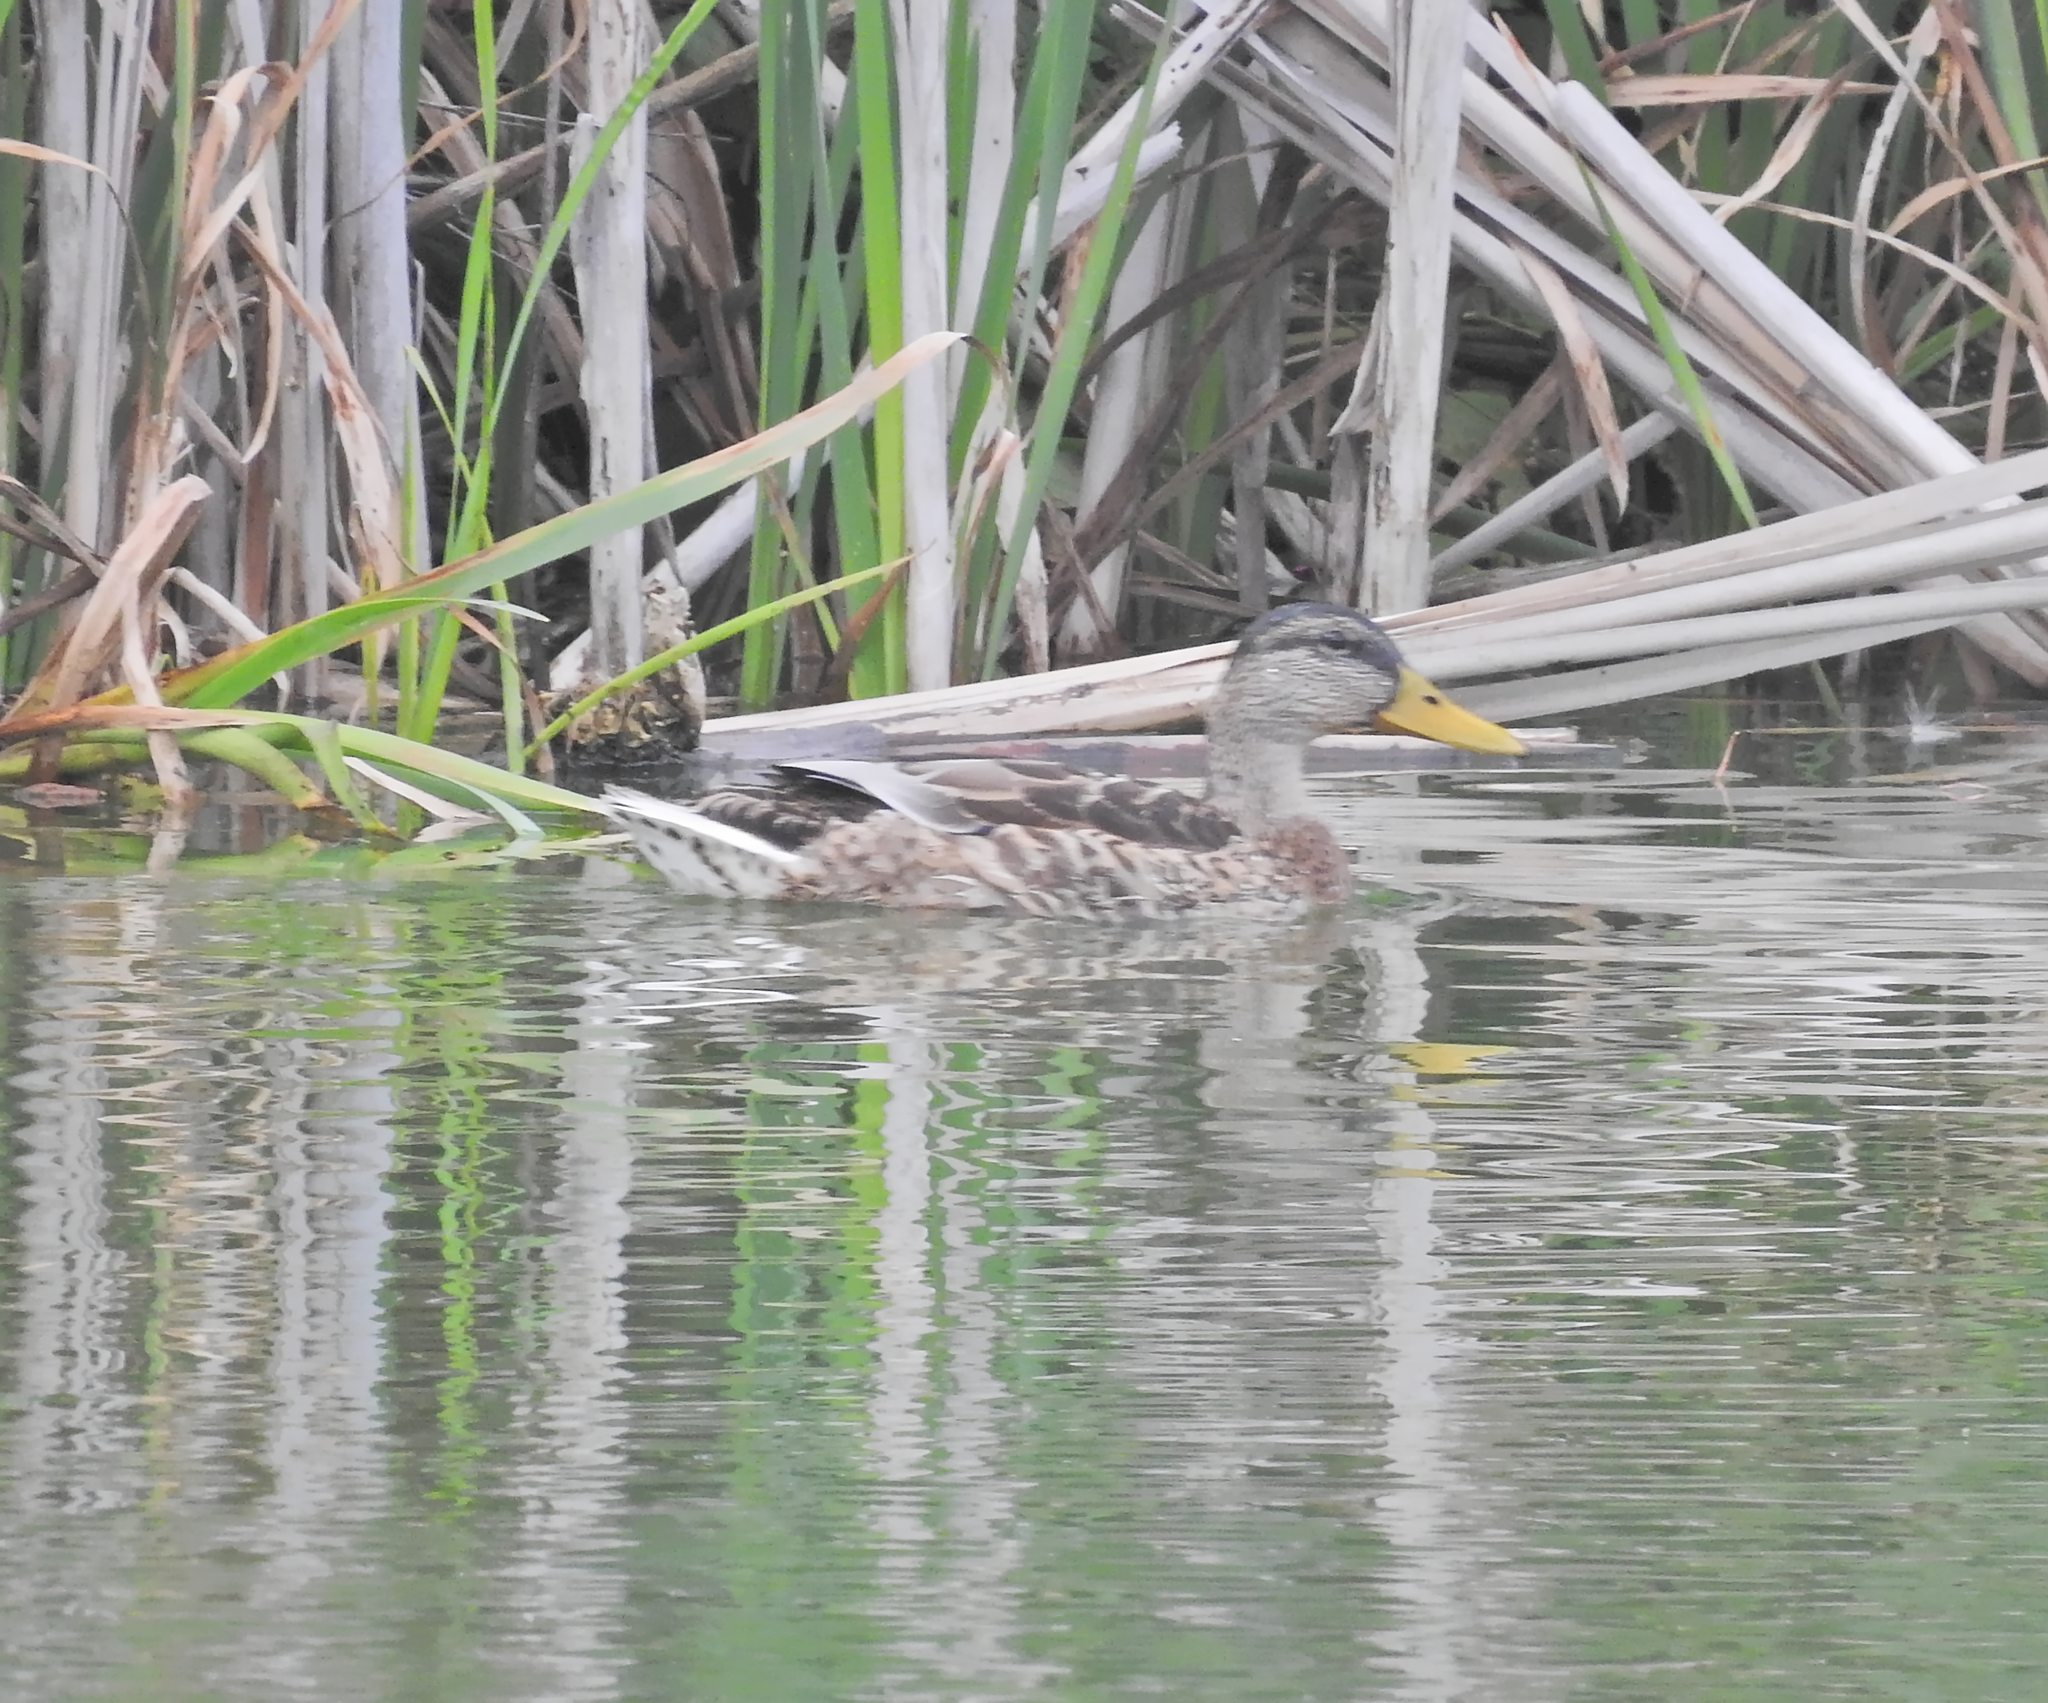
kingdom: Animalia
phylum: Chordata
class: Aves
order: Anseriformes
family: Anatidae
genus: Anas
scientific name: Anas platyrhynchos
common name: Mallard
